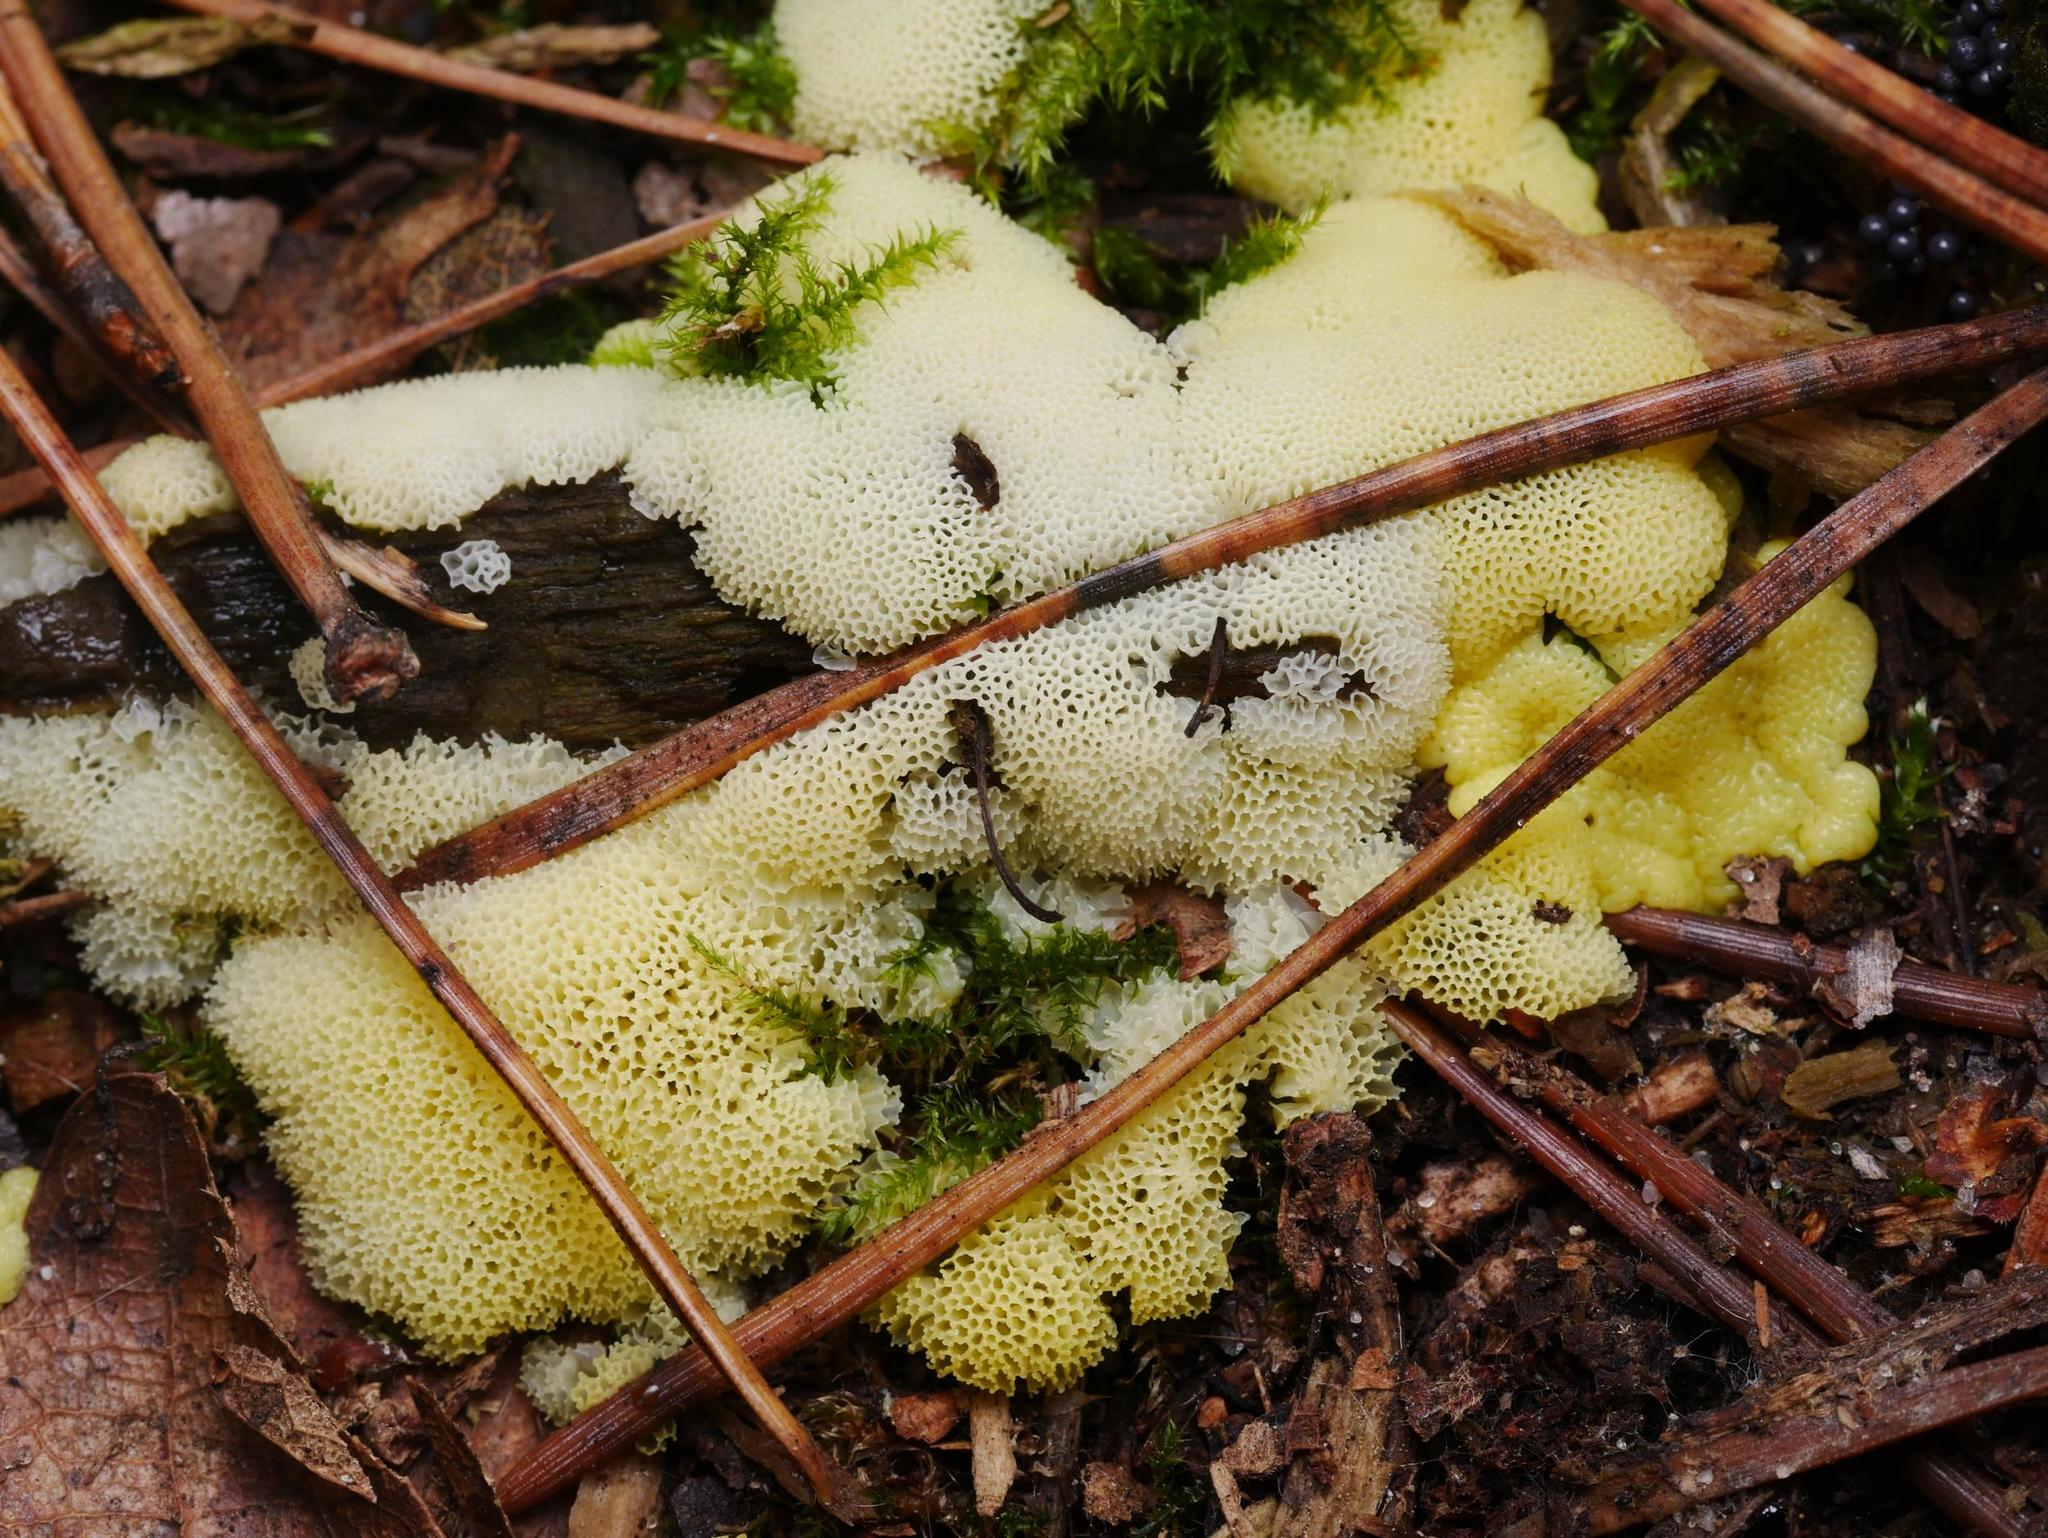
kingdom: Protozoa
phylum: Mycetozoa
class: Protosteliomycetes
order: Ceratiomyxales
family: Ceratiomyxaceae
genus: Ceratiomyxa
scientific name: Ceratiomyxa fruticulosa
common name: Honeycomb coral slime mold
